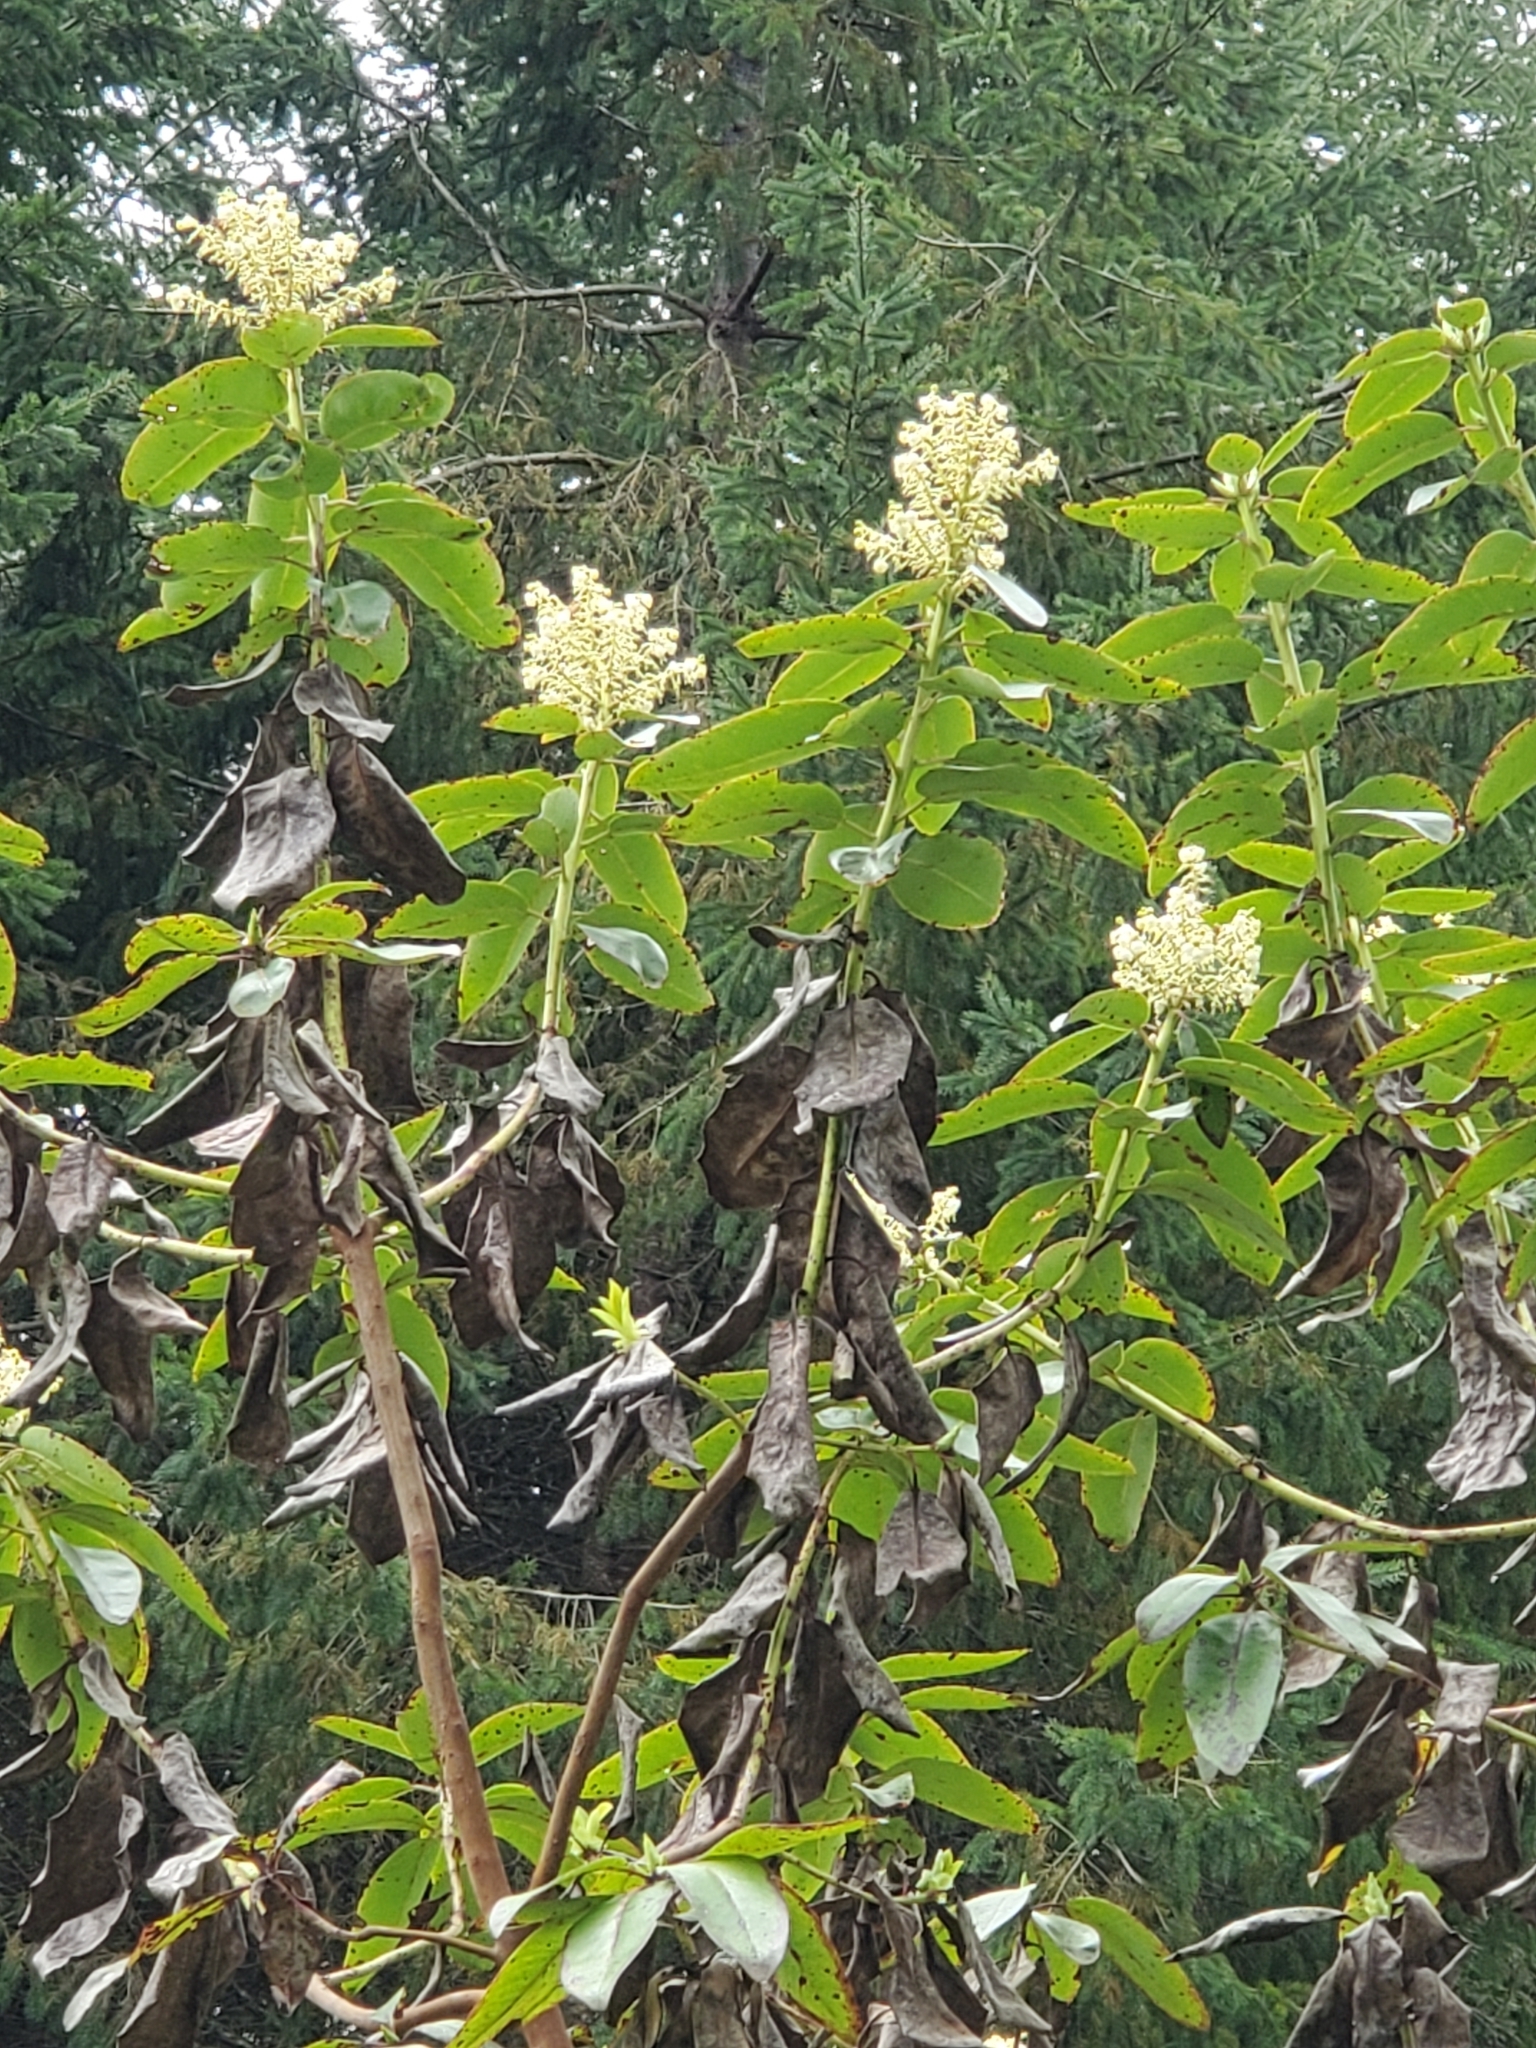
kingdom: Plantae
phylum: Tracheophyta
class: Magnoliopsida
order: Ericales
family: Ericaceae
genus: Arbutus
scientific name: Arbutus menziesii
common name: Pacific madrone
